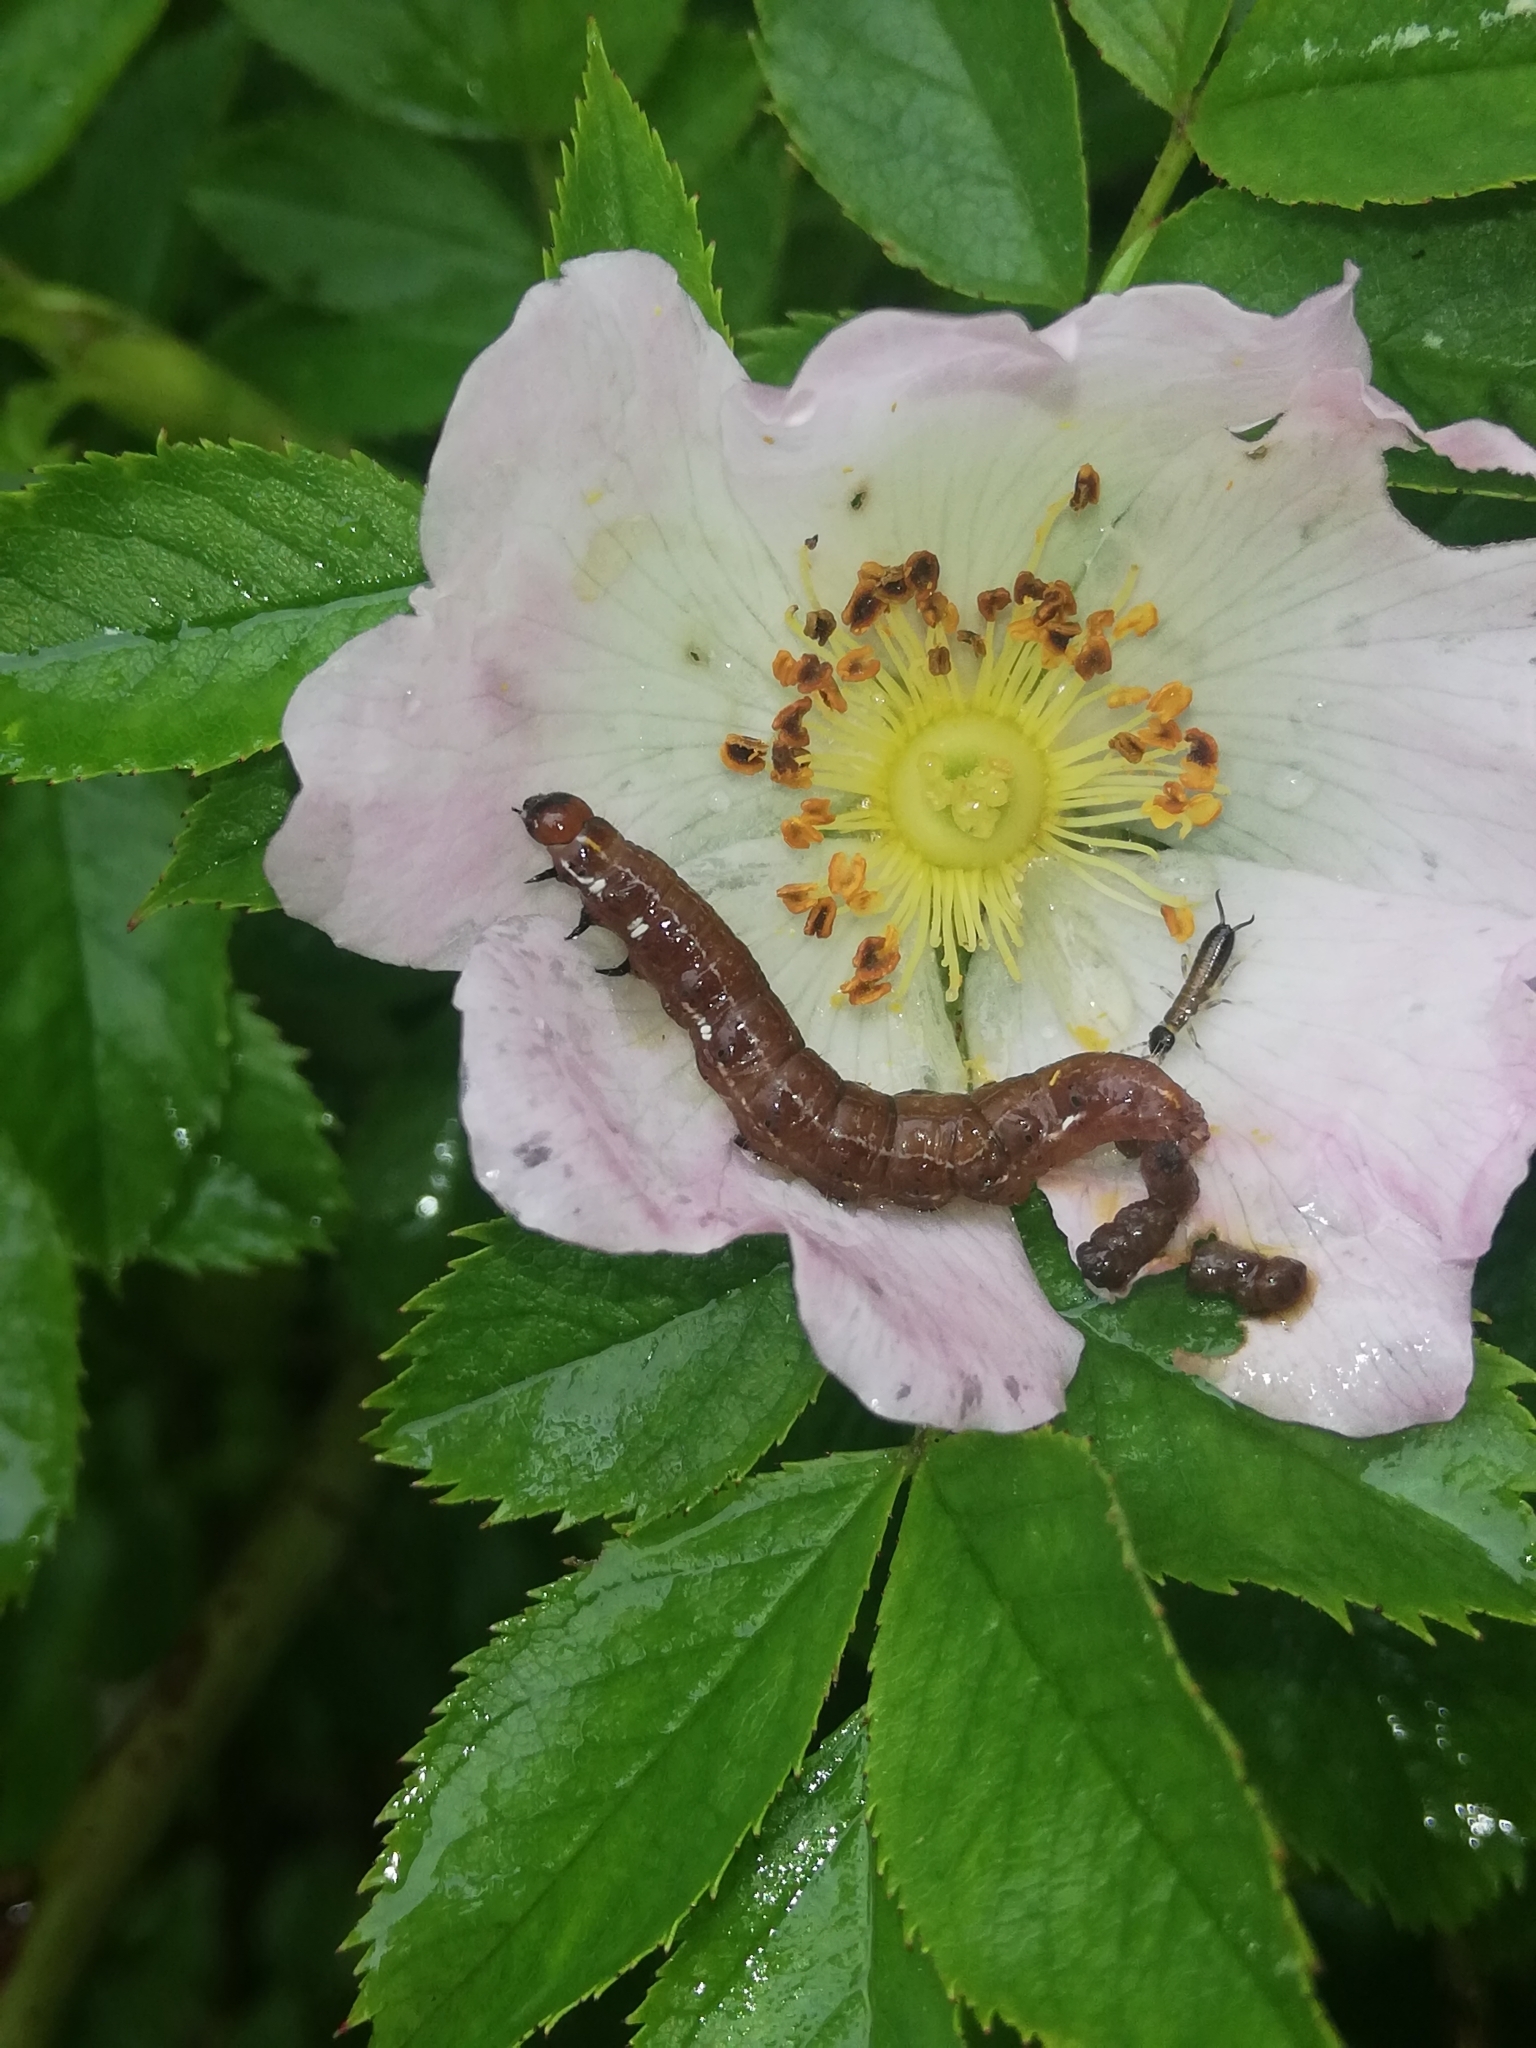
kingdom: Animalia
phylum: Arthropoda
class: Insecta
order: Lepidoptera
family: Noctuidae
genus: Eupsilia
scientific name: Eupsilia transversa
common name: Satellite
